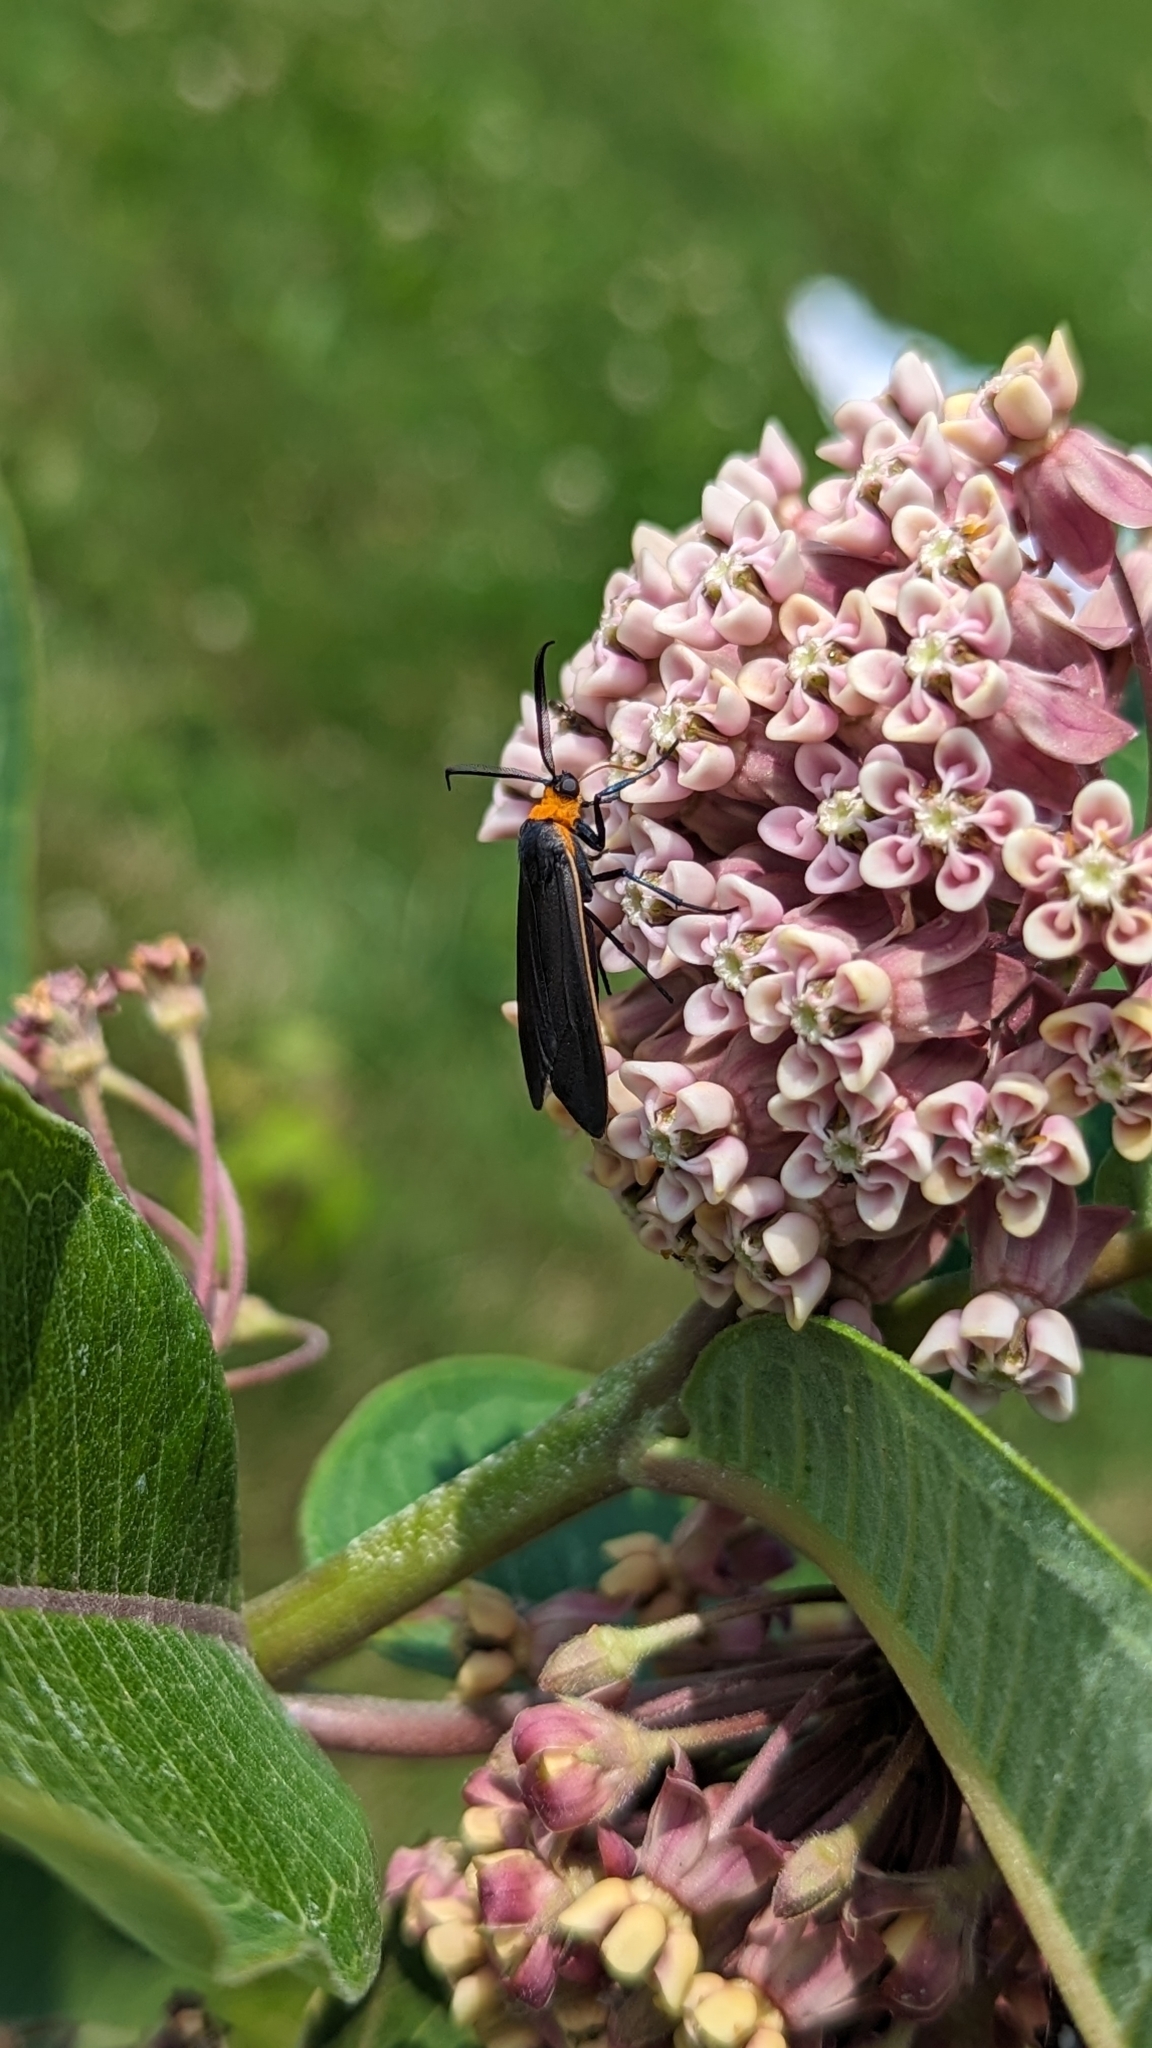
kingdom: Animalia
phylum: Arthropoda
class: Insecta
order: Lepidoptera
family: Erebidae
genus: Cisseps
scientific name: Cisseps fulvicollis
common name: Yellow-collared scape moth
